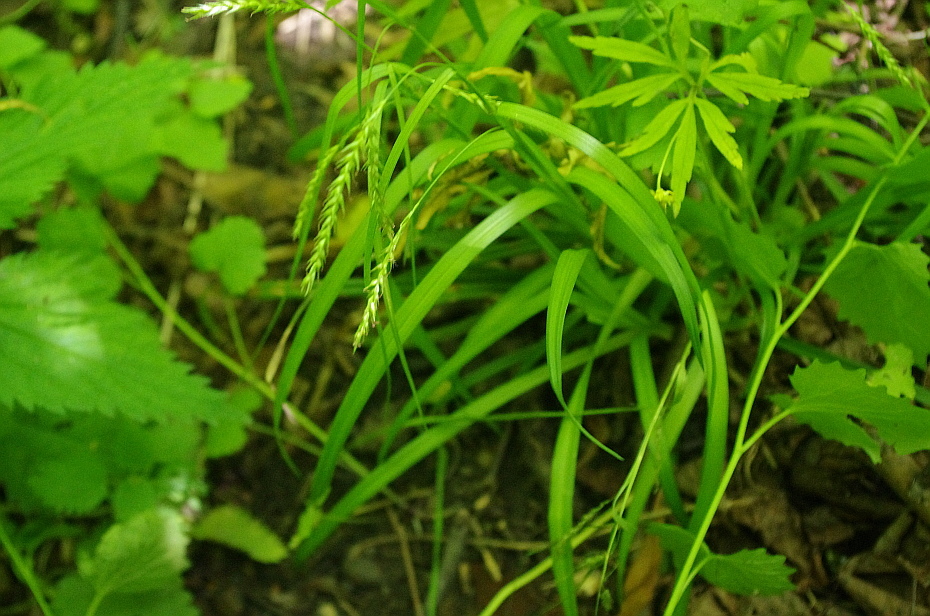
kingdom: Plantae
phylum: Tracheophyta
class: Liliopsida
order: Poales
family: Cyperaceae
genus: Carex
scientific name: Carex sylvatica
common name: Wood-sedge
